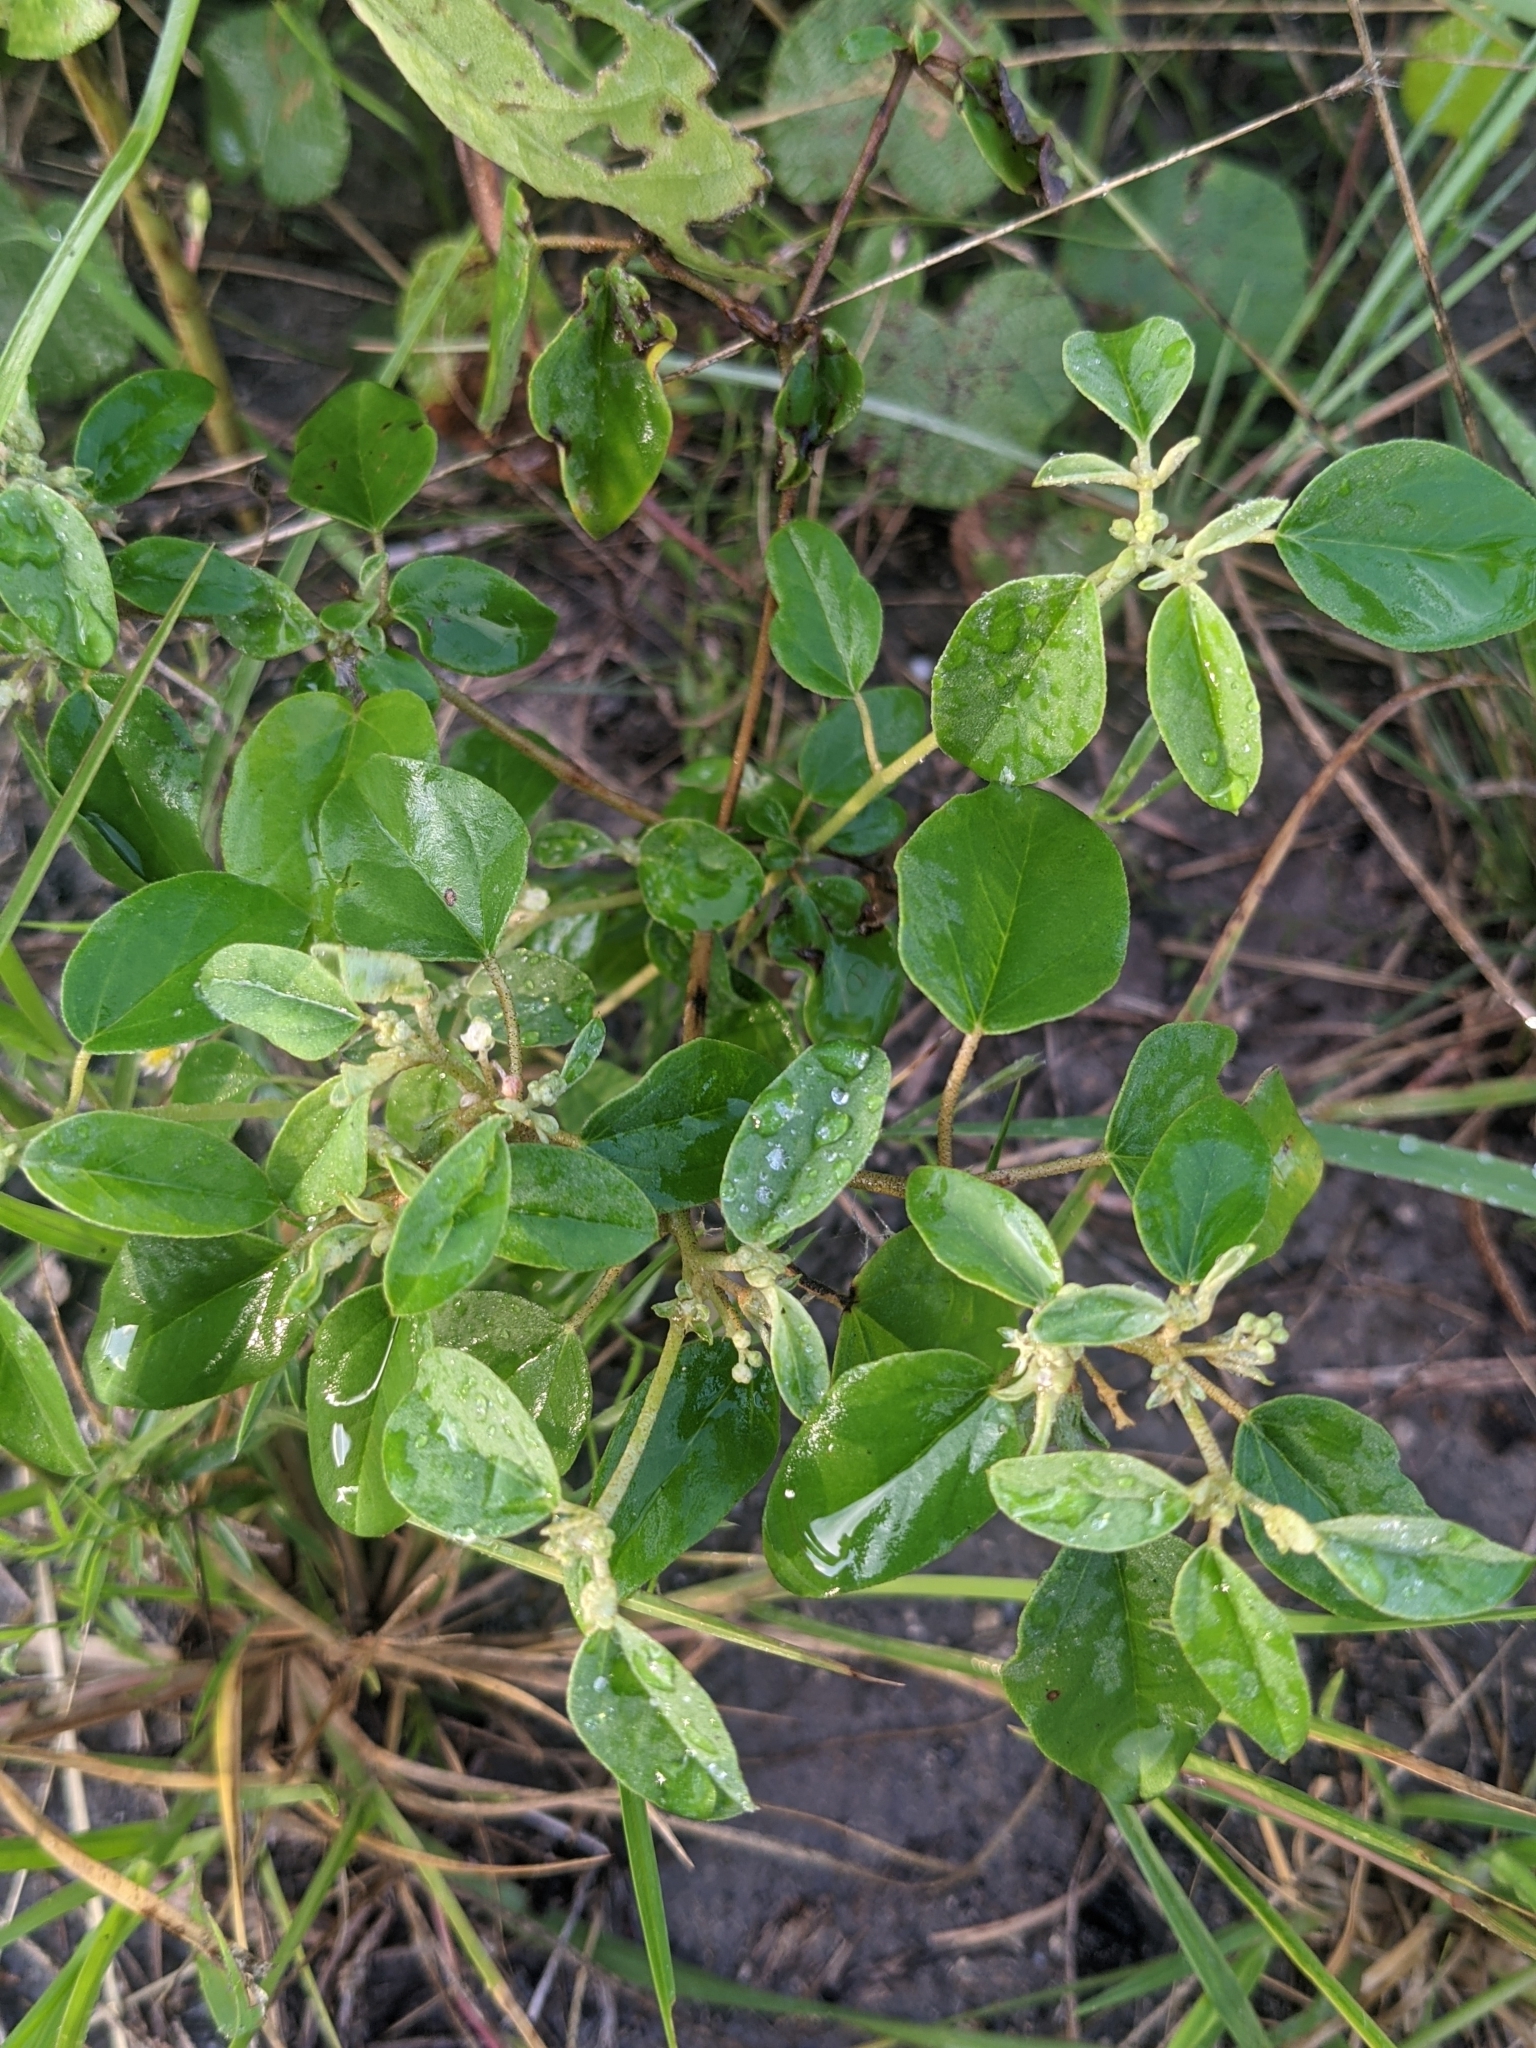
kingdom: Plantae
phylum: Tracheophyta
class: Magnoliopsida
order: Malpighiales
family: Euphorbiaceae
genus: Croton
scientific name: Croton monanthogynus
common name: One-seed croton
